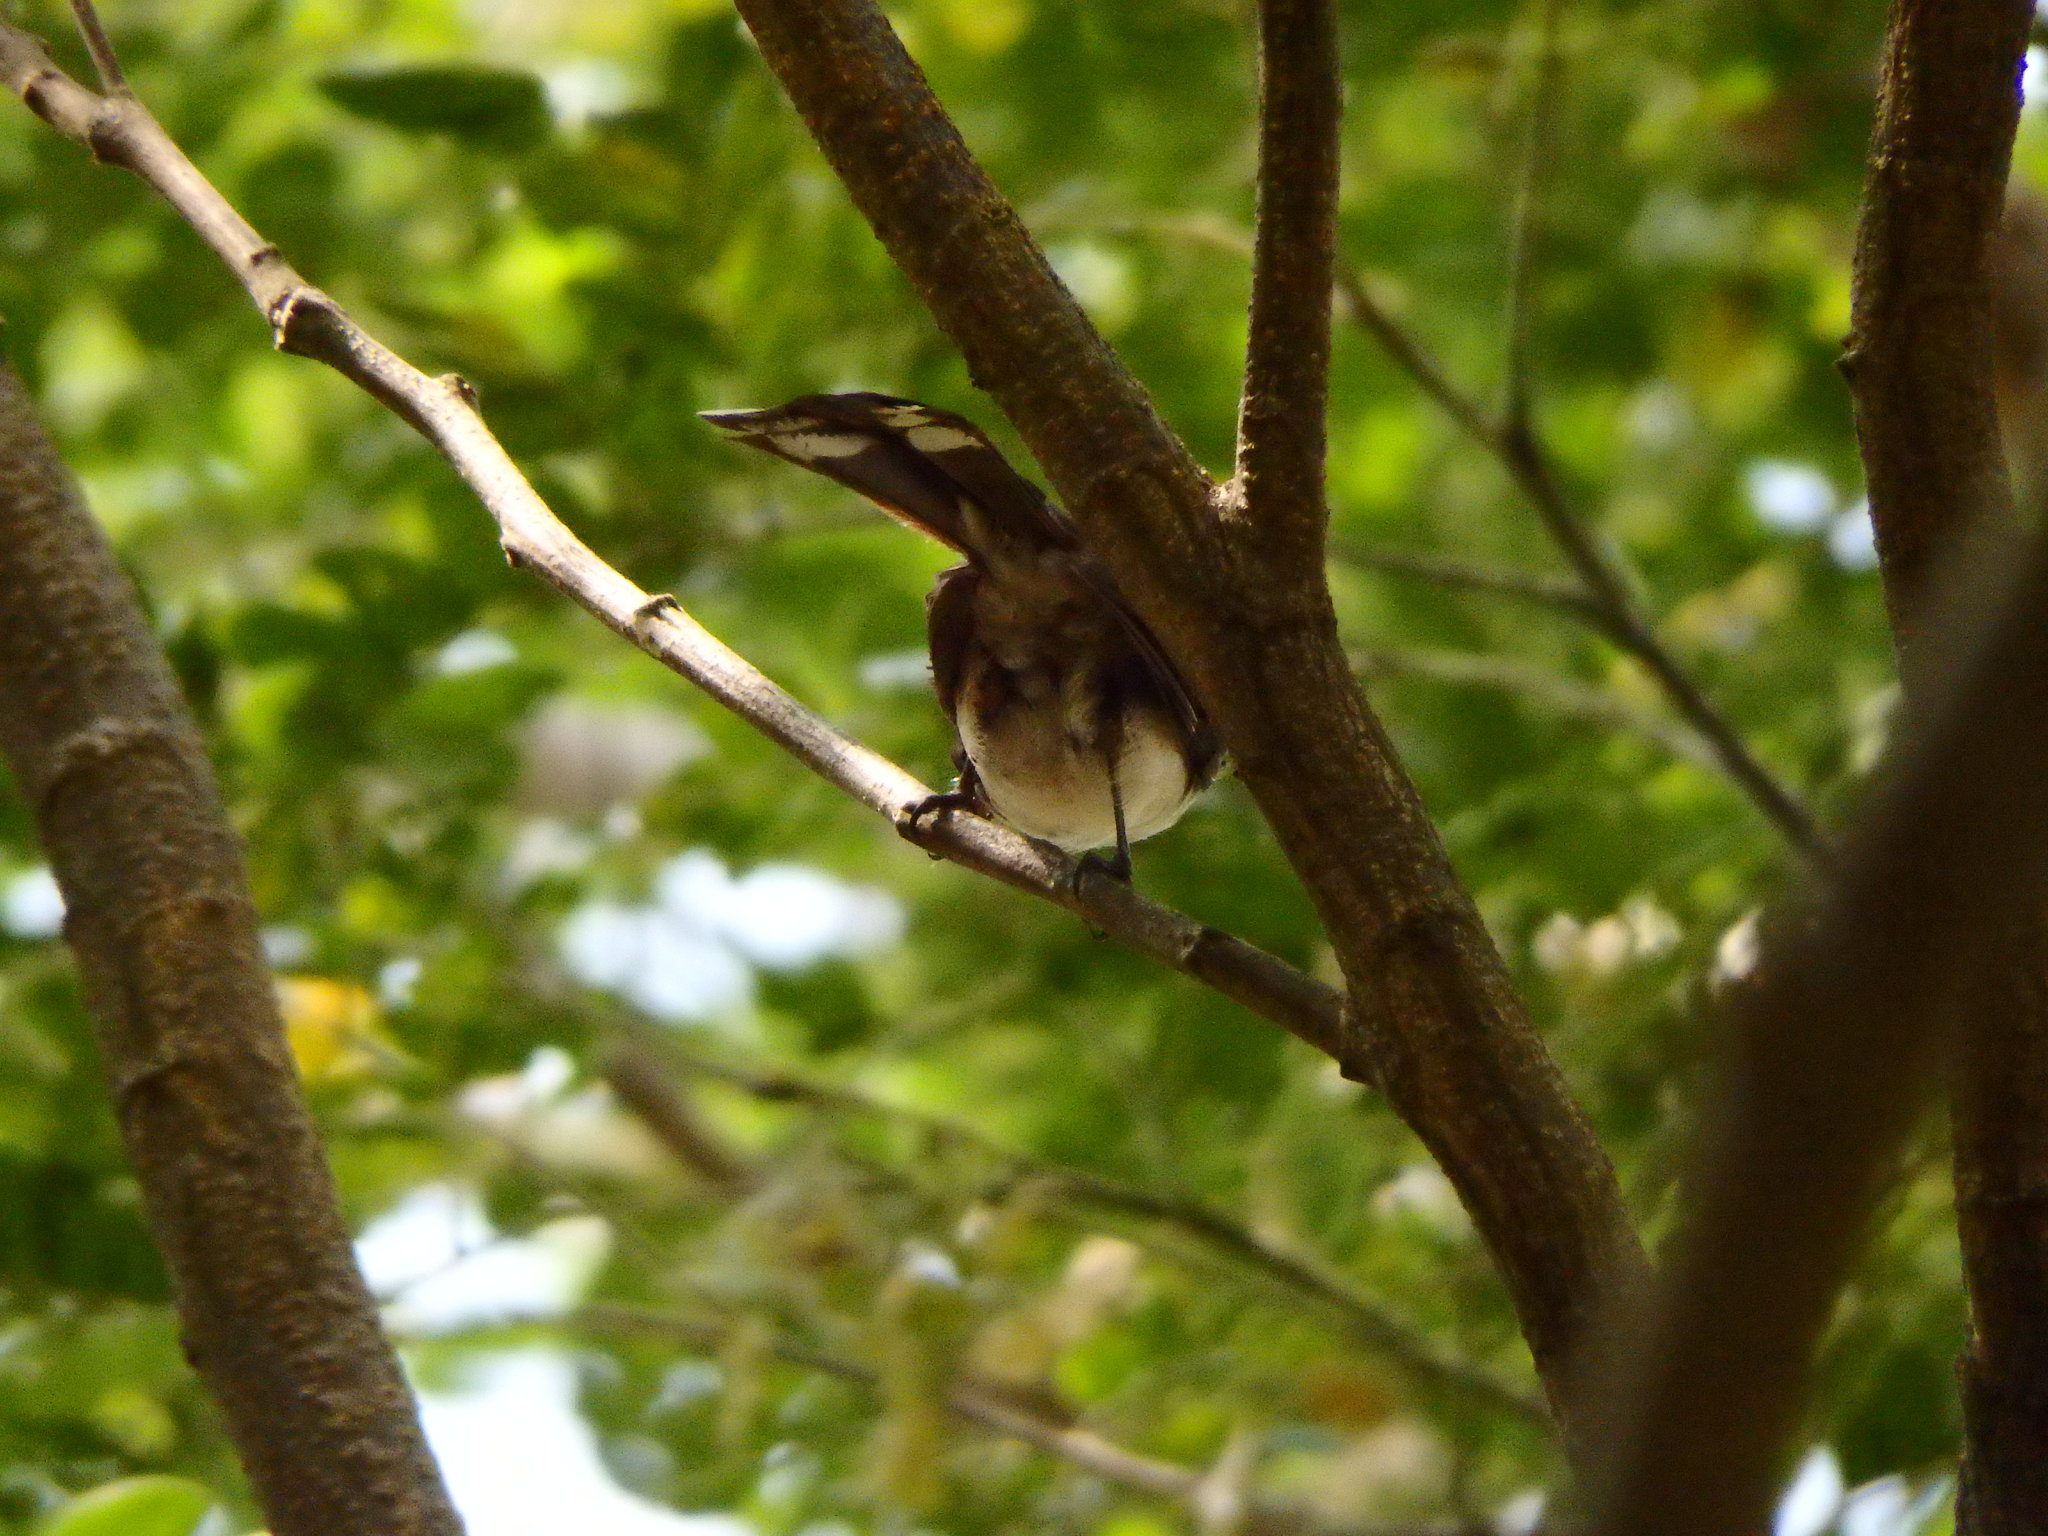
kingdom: Animalia
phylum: Chordata
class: Aves
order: Passeriformes
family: Rhipiduridae
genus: Rhipidura
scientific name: Rhipidura javanica
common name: Pied fantail
